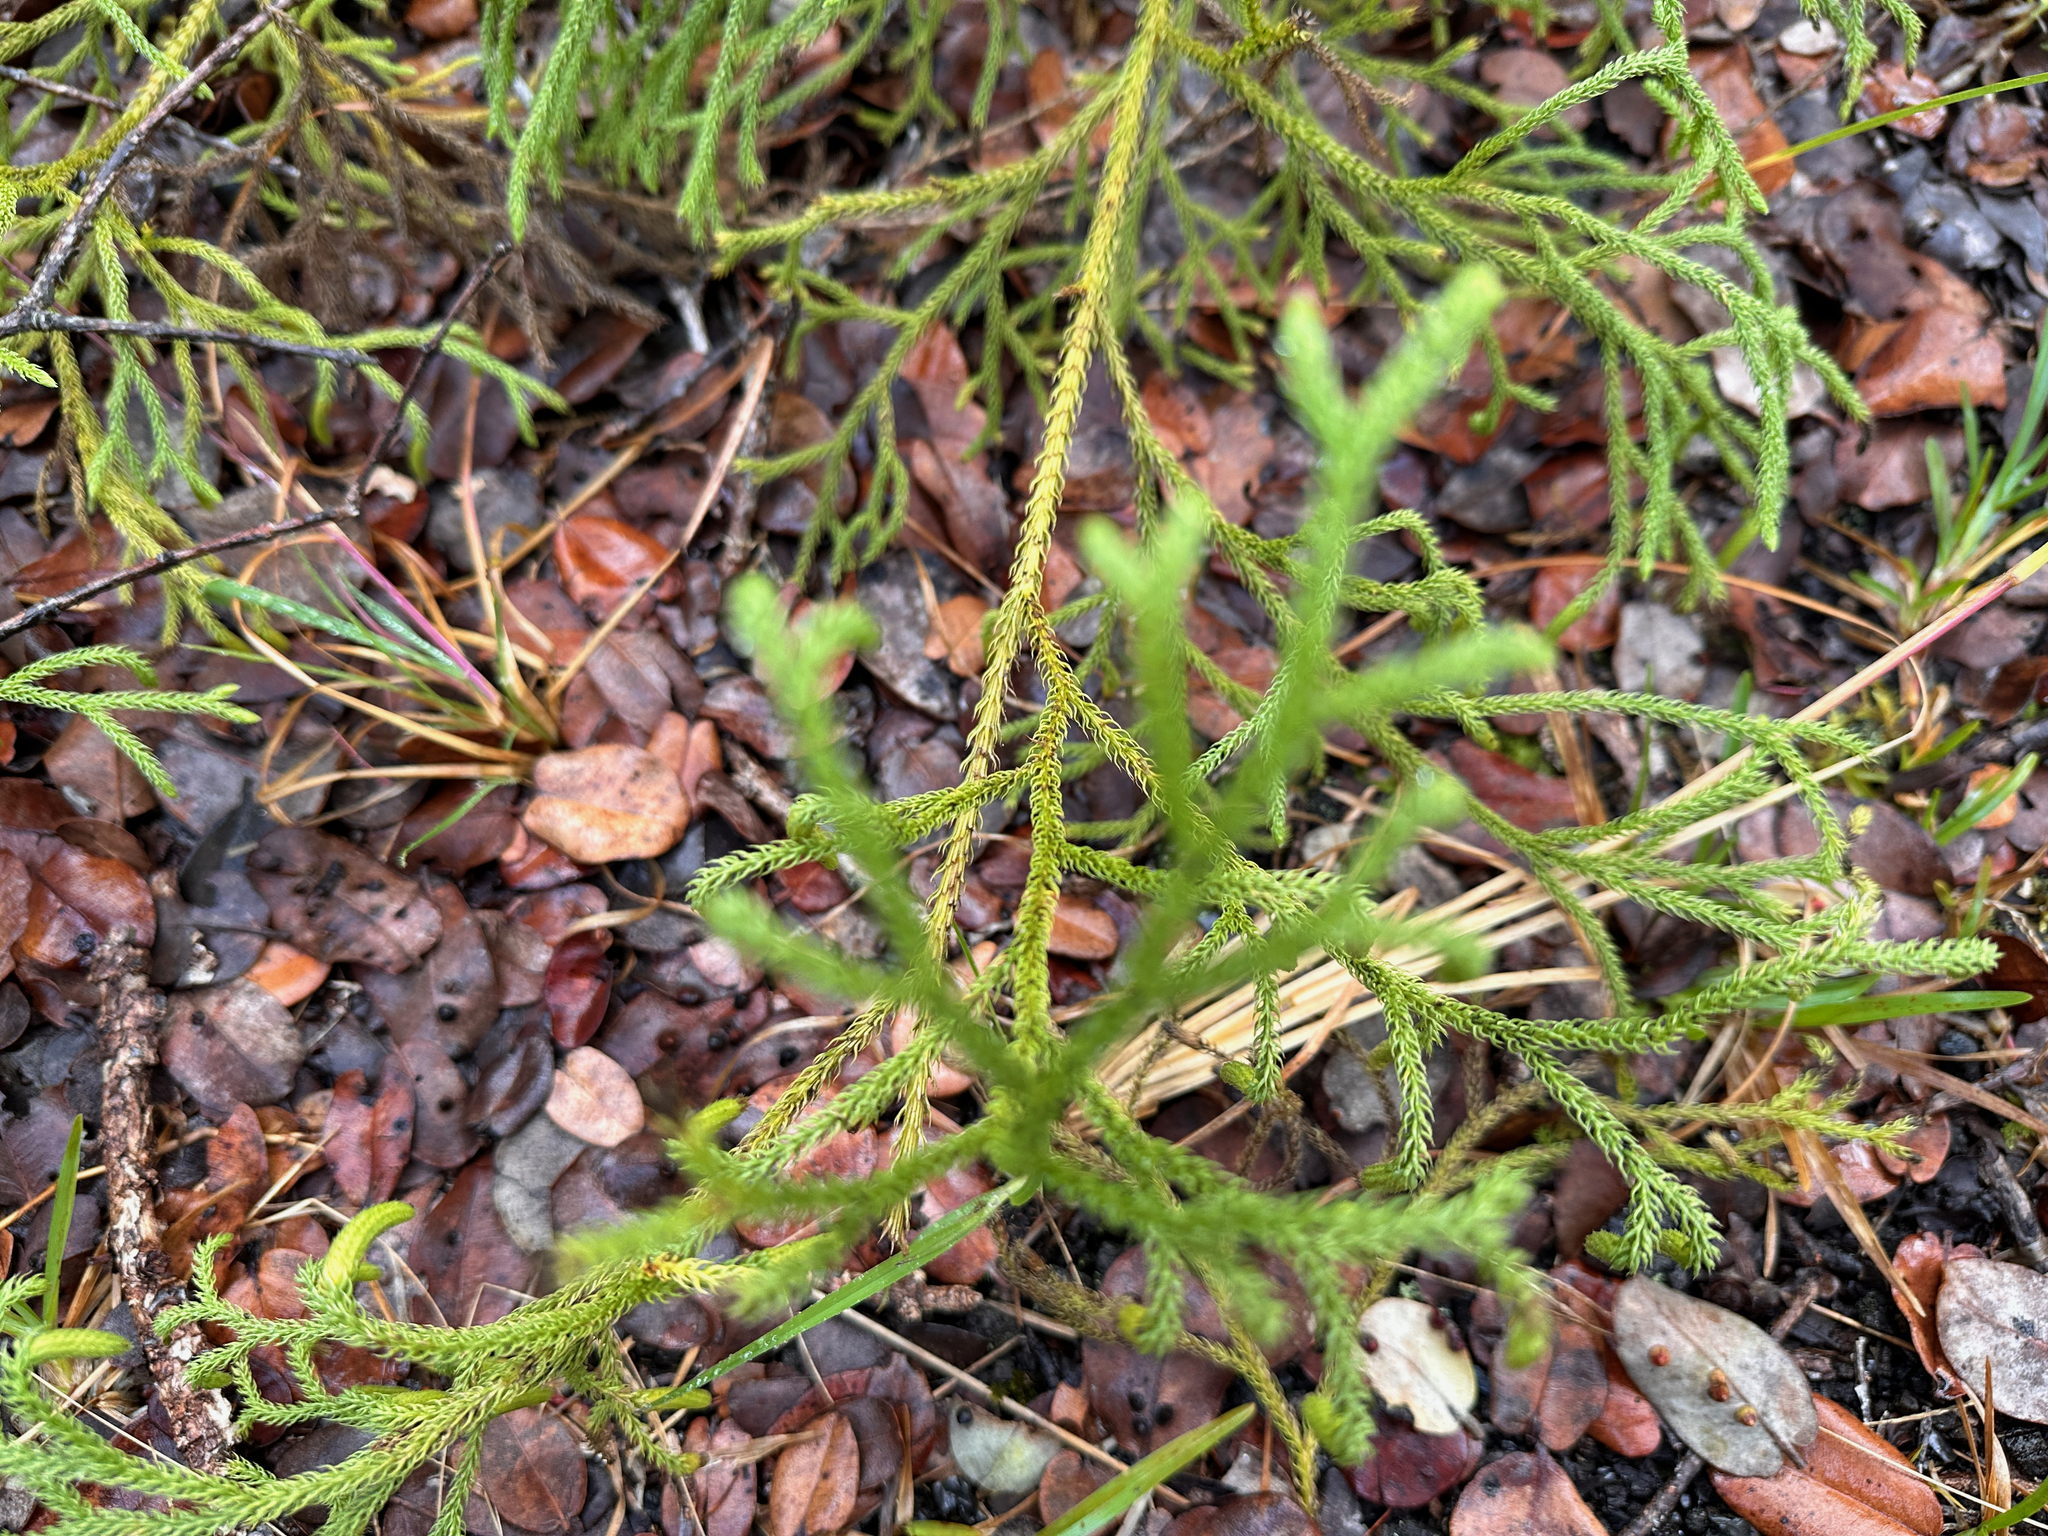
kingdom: Plantae
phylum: Tracheophyta
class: Lycopodiopsida
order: Lycopodiales
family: Lycopodiaceae
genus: Palhinhaea
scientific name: Palhinhaea cernua
